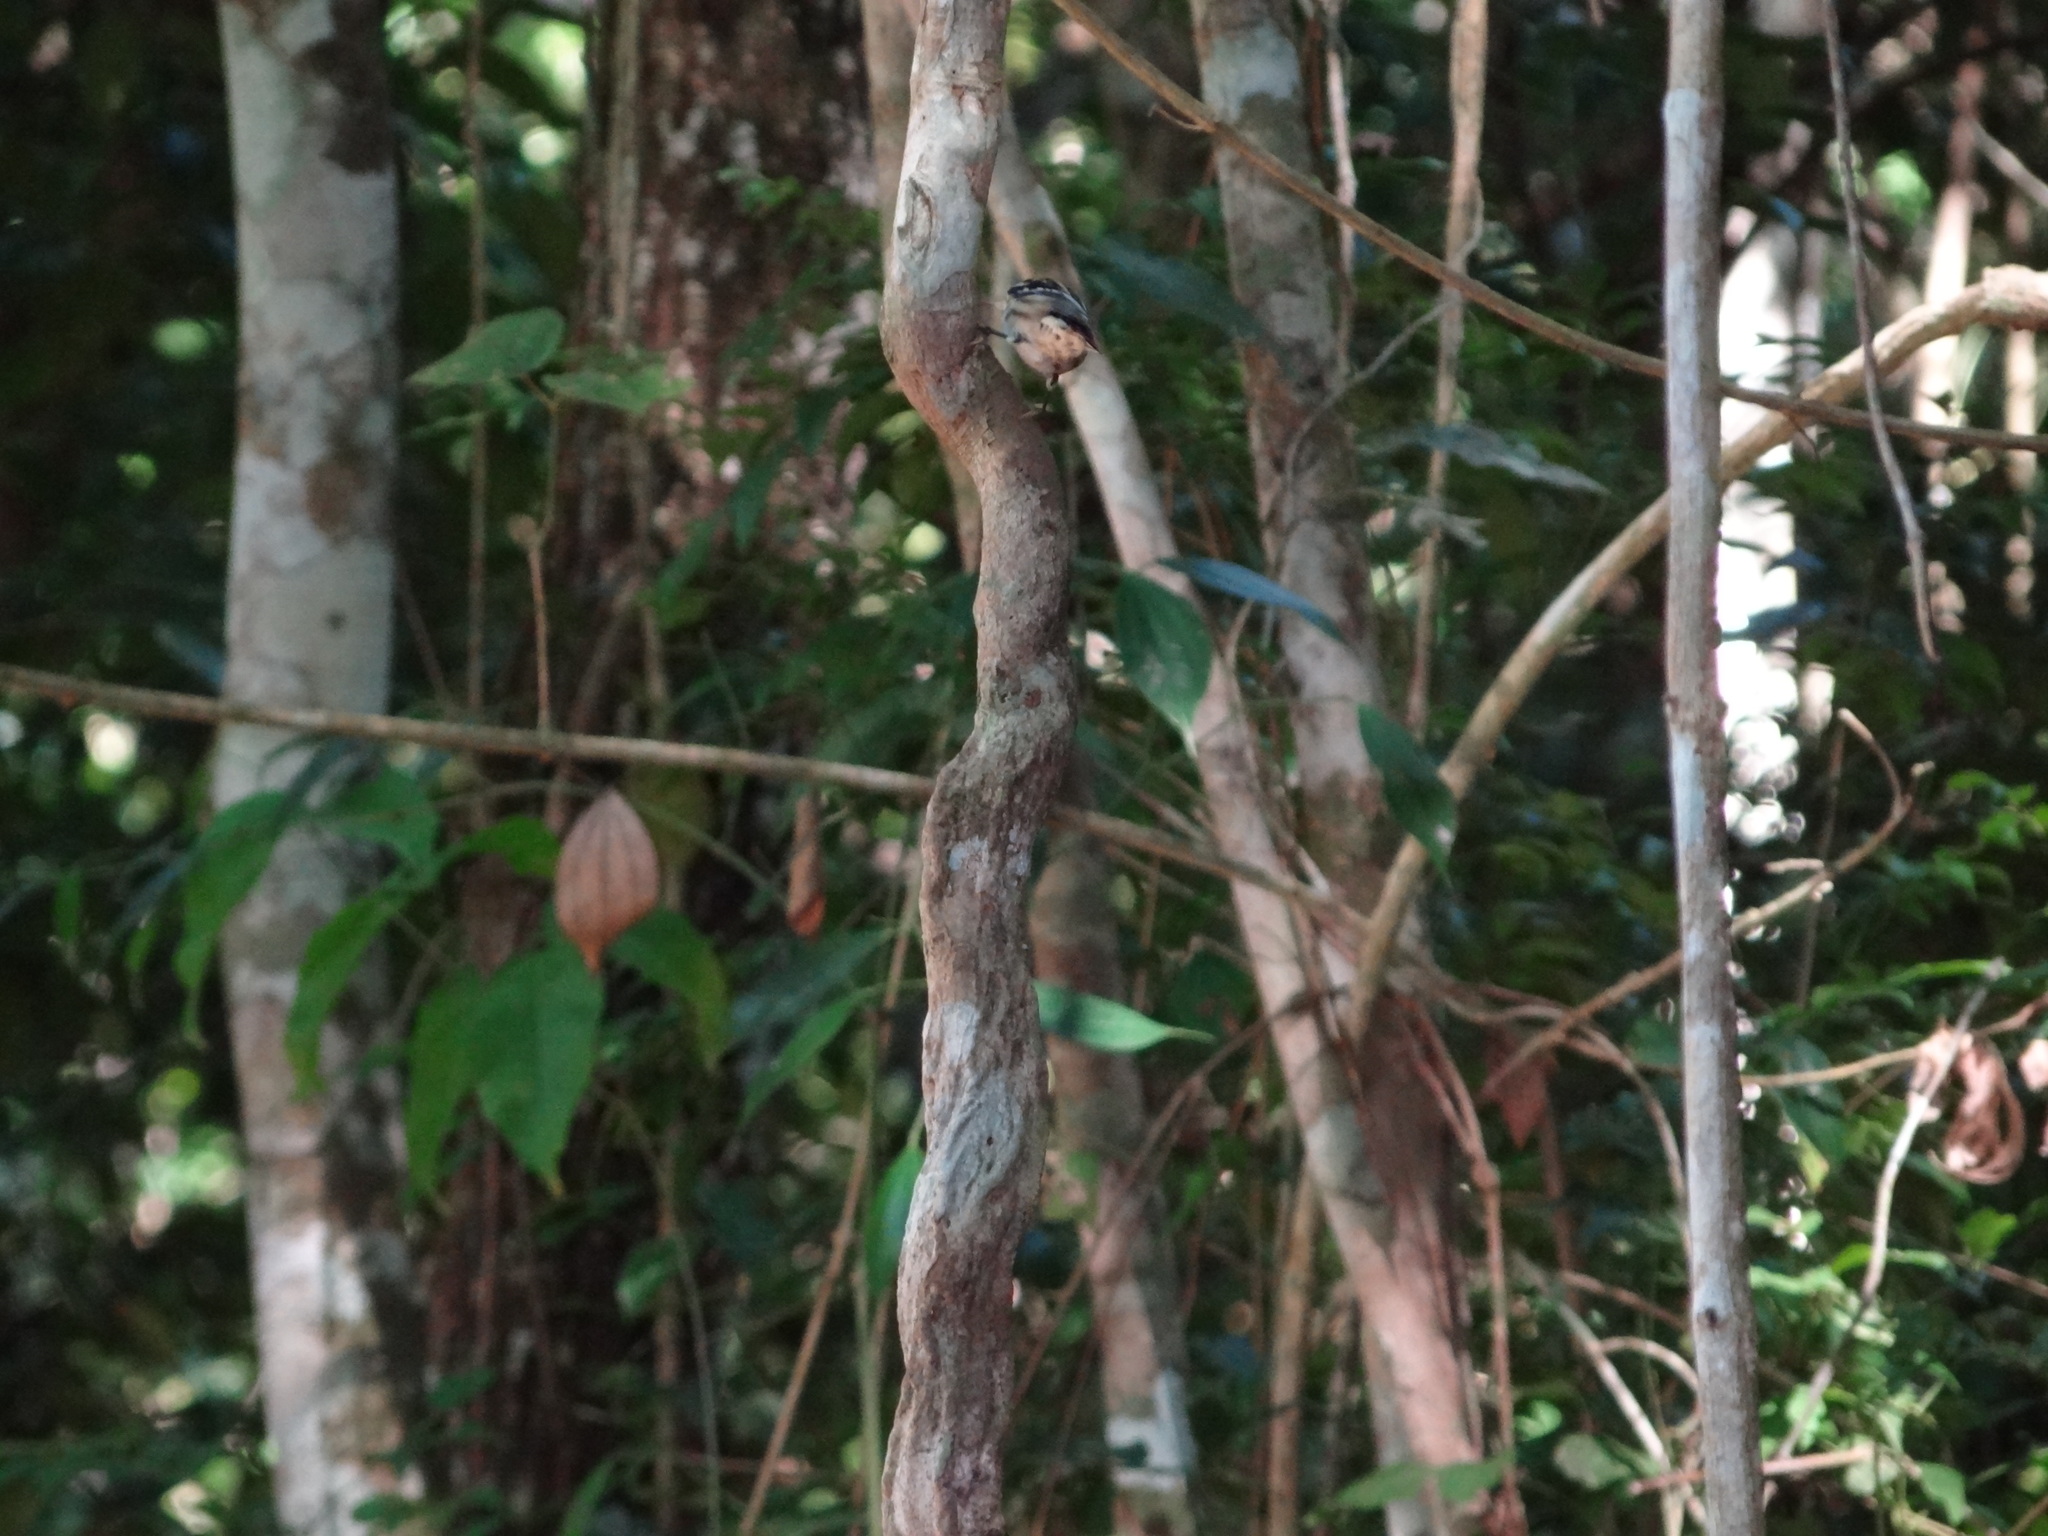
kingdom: Animalia
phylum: Chordata
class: Aves
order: Passeriformes
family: Parulidae
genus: Mniotilta
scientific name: Mniotilta varia
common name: Black-and-white warbler
